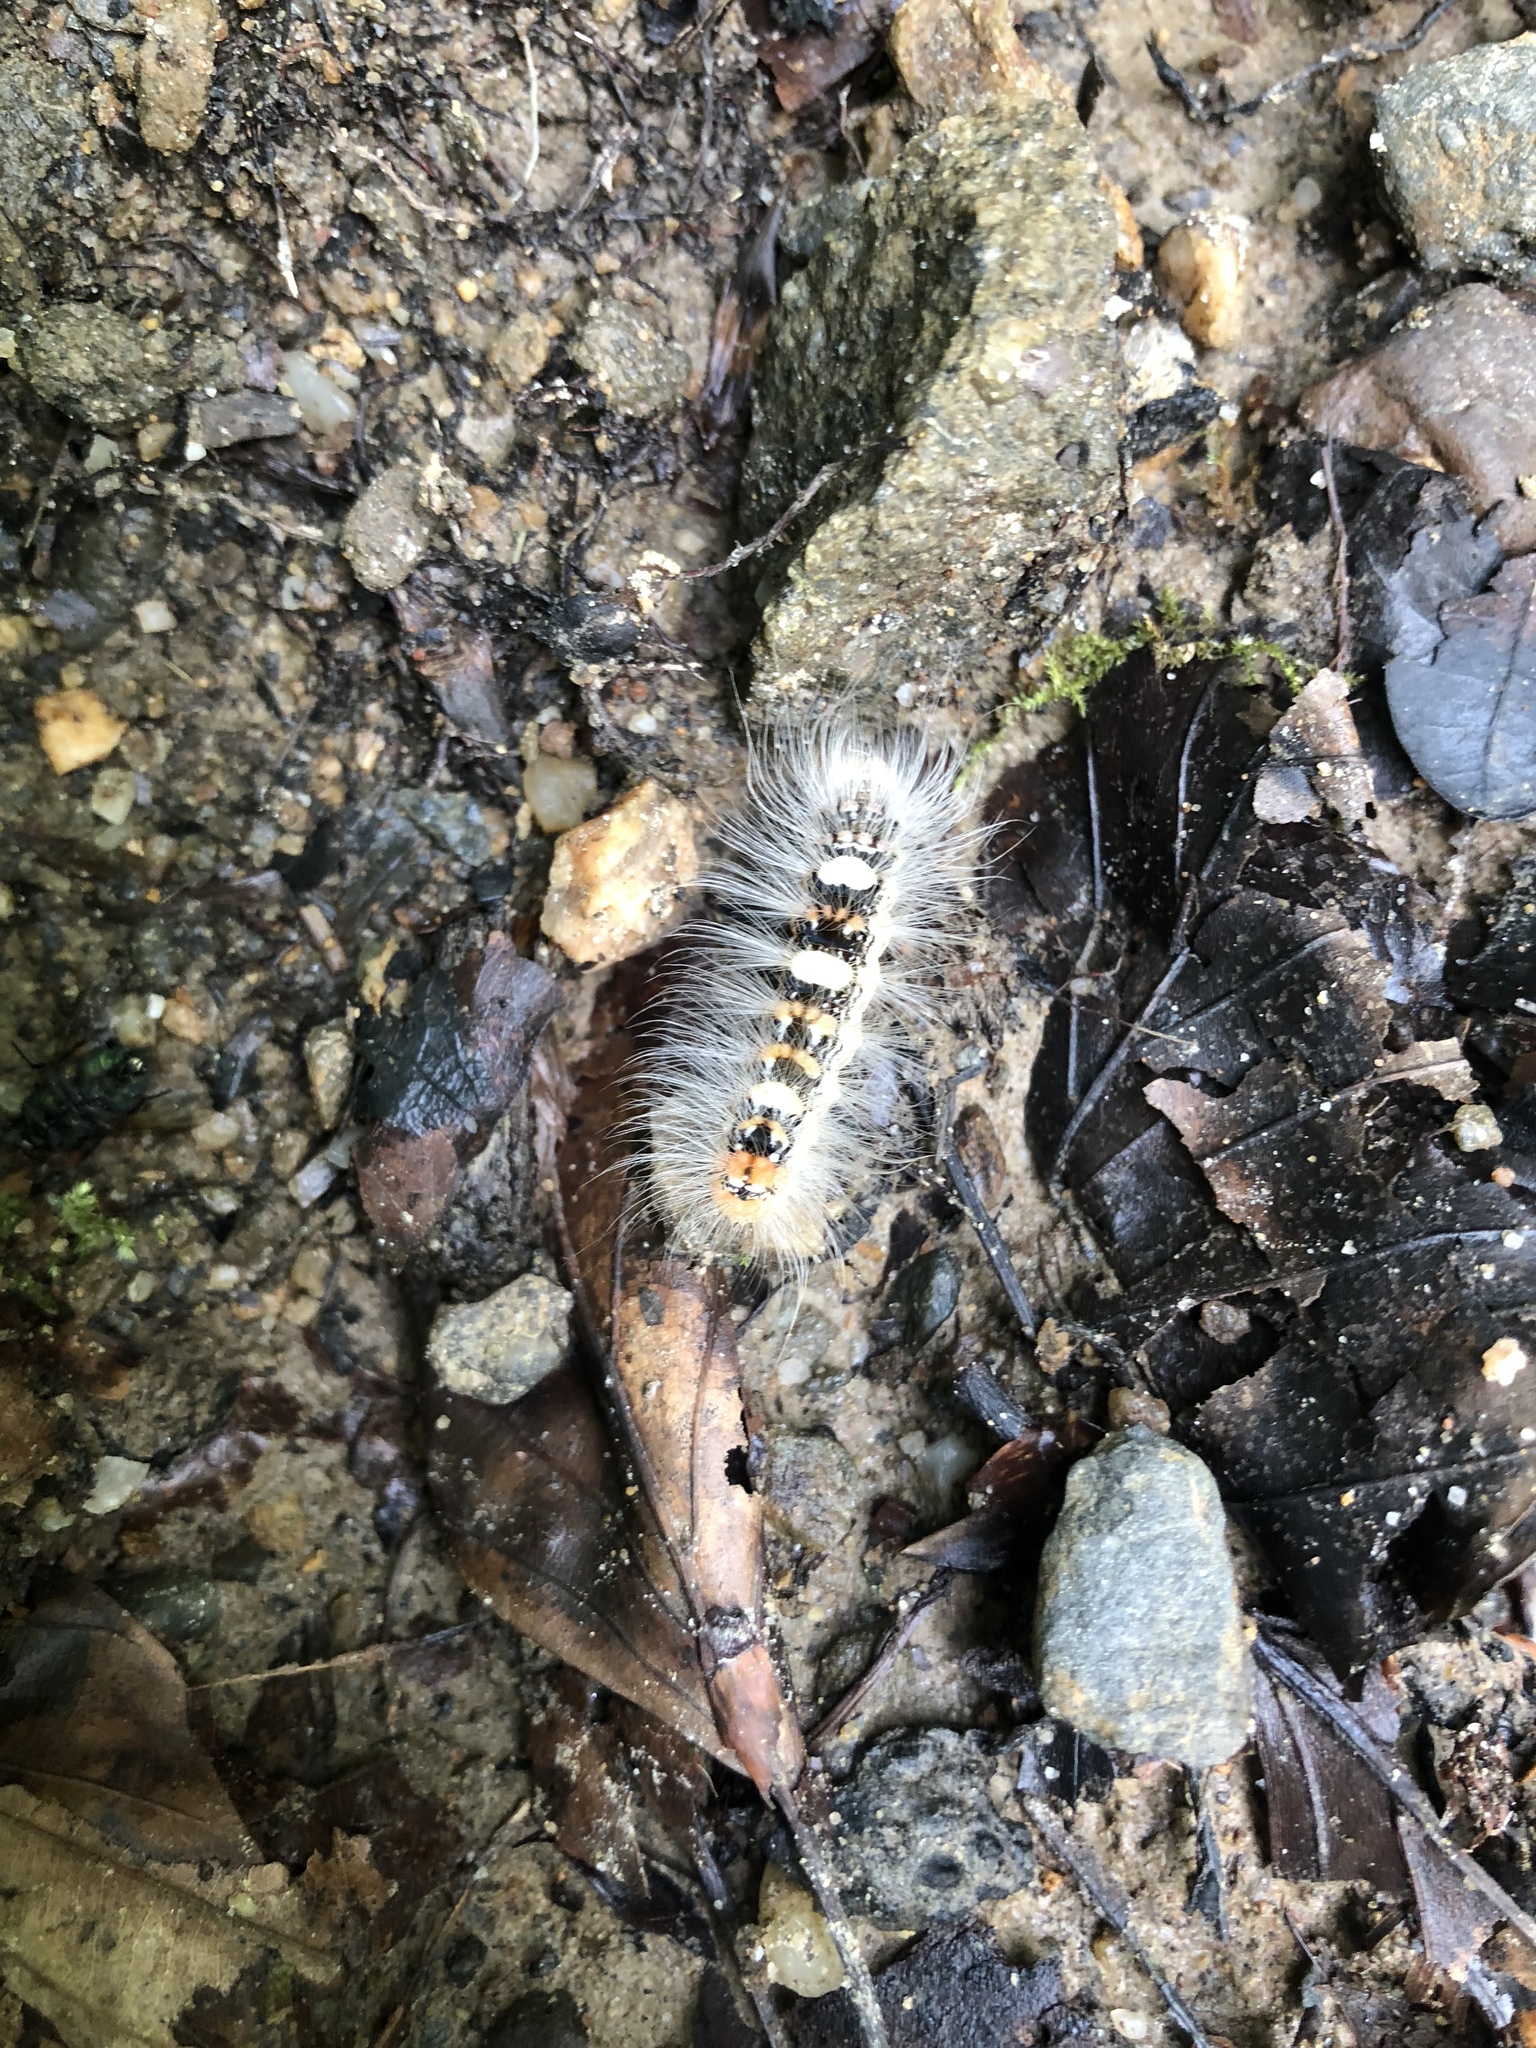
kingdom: Animalia
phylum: Arthropoda
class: Insecta
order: Lepidoptera
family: Noctuidae
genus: Moma
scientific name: Moma alpium
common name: Scarce merveille du jour
